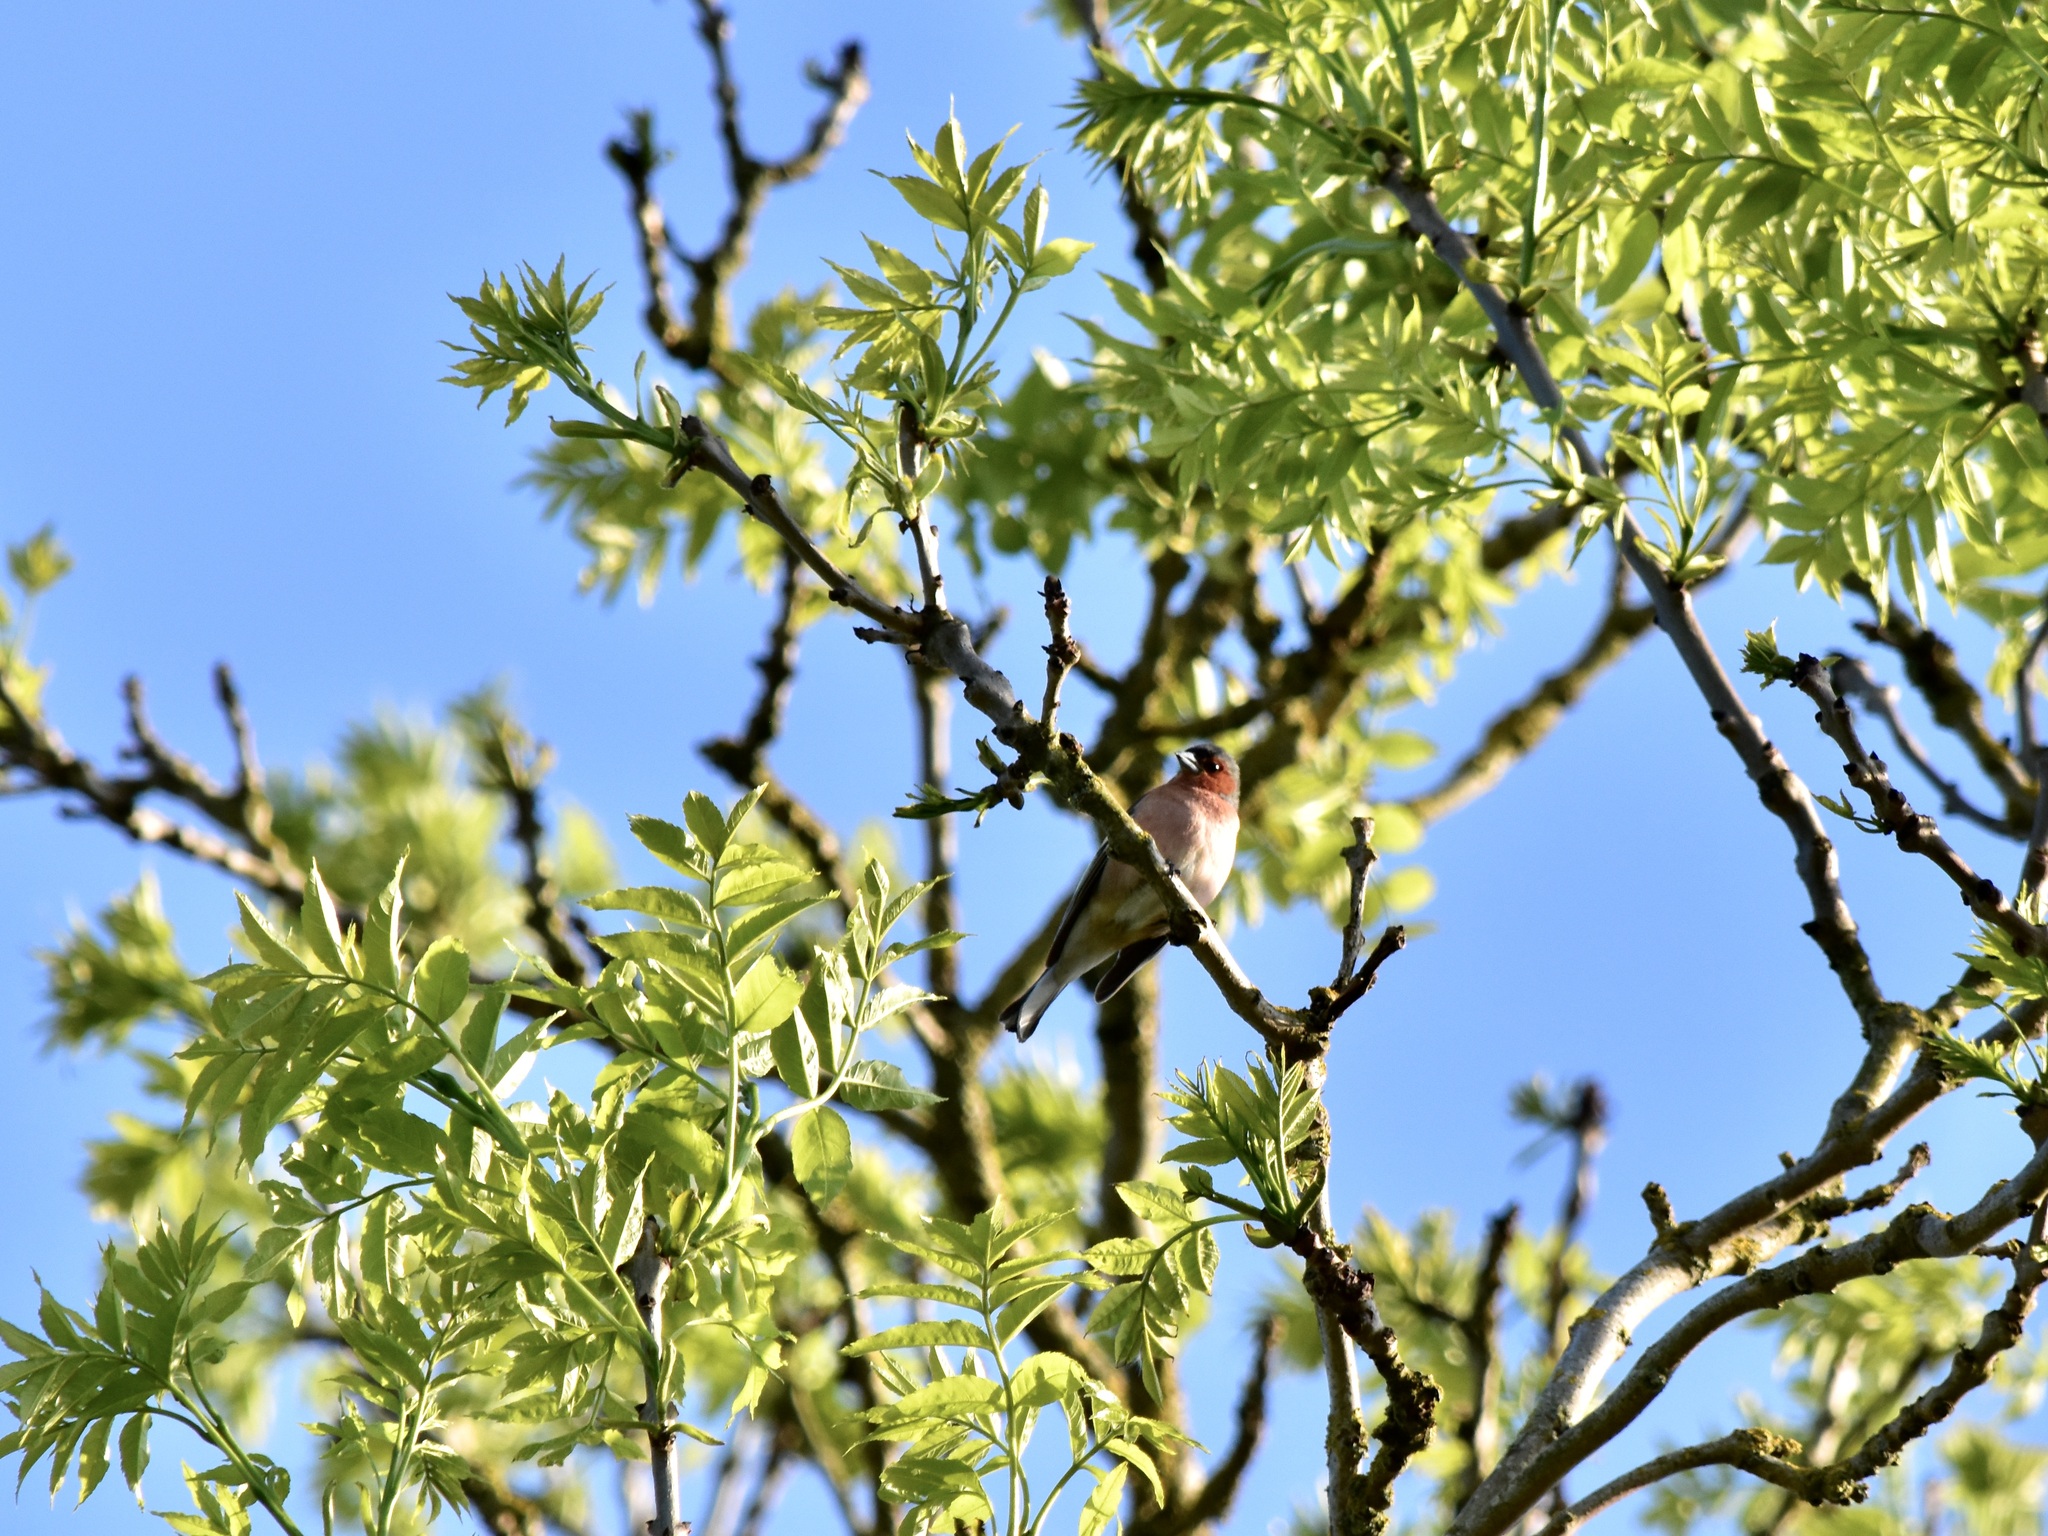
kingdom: Animalia
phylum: Chordata
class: Aves
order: Passeriformes
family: Fringillidae
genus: Fringilla
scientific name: Fringilla coelebs
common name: Common chaffinch
